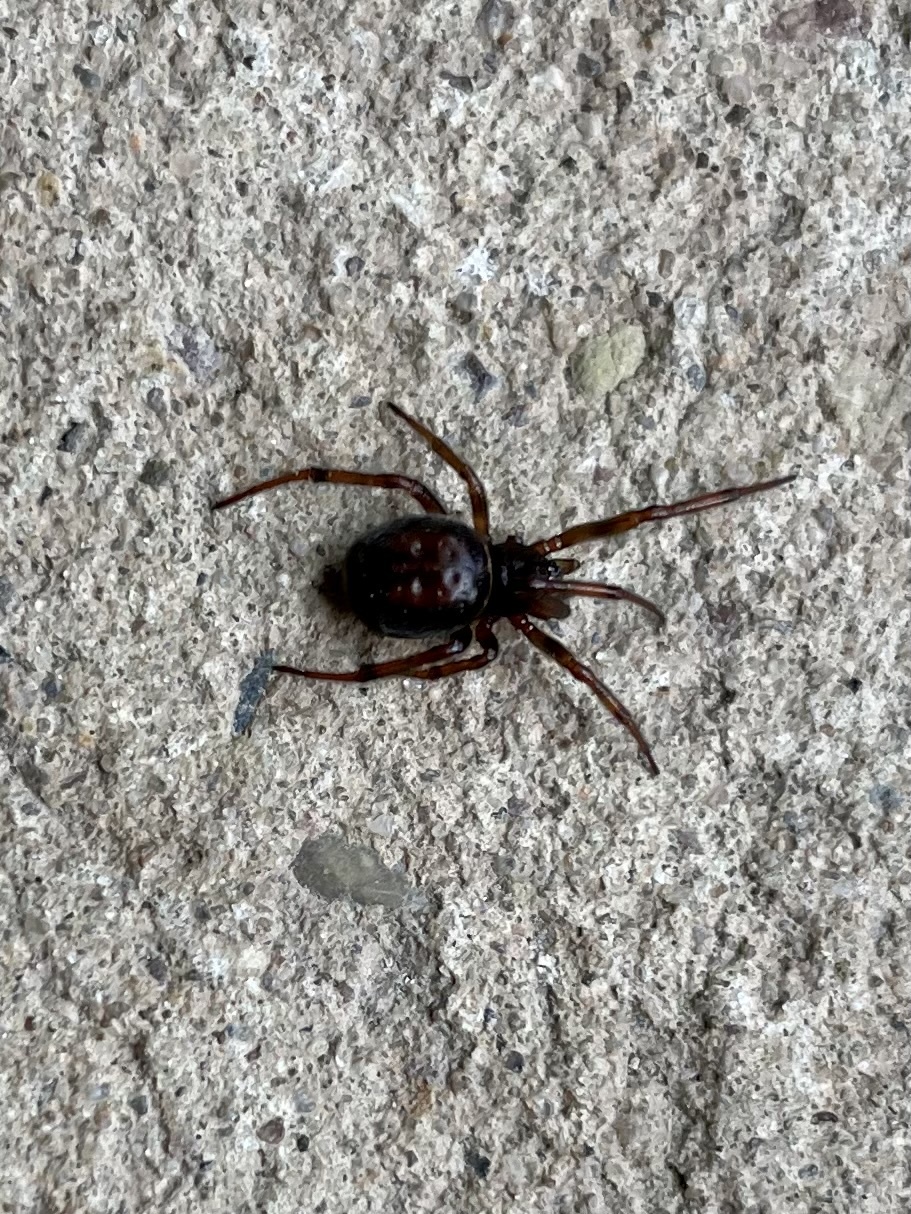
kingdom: Animalia
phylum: Arthropoda
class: Arachnida
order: Araneae
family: Theridiidae
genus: Steatoda
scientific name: Steatoda bipunctata
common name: False widow
